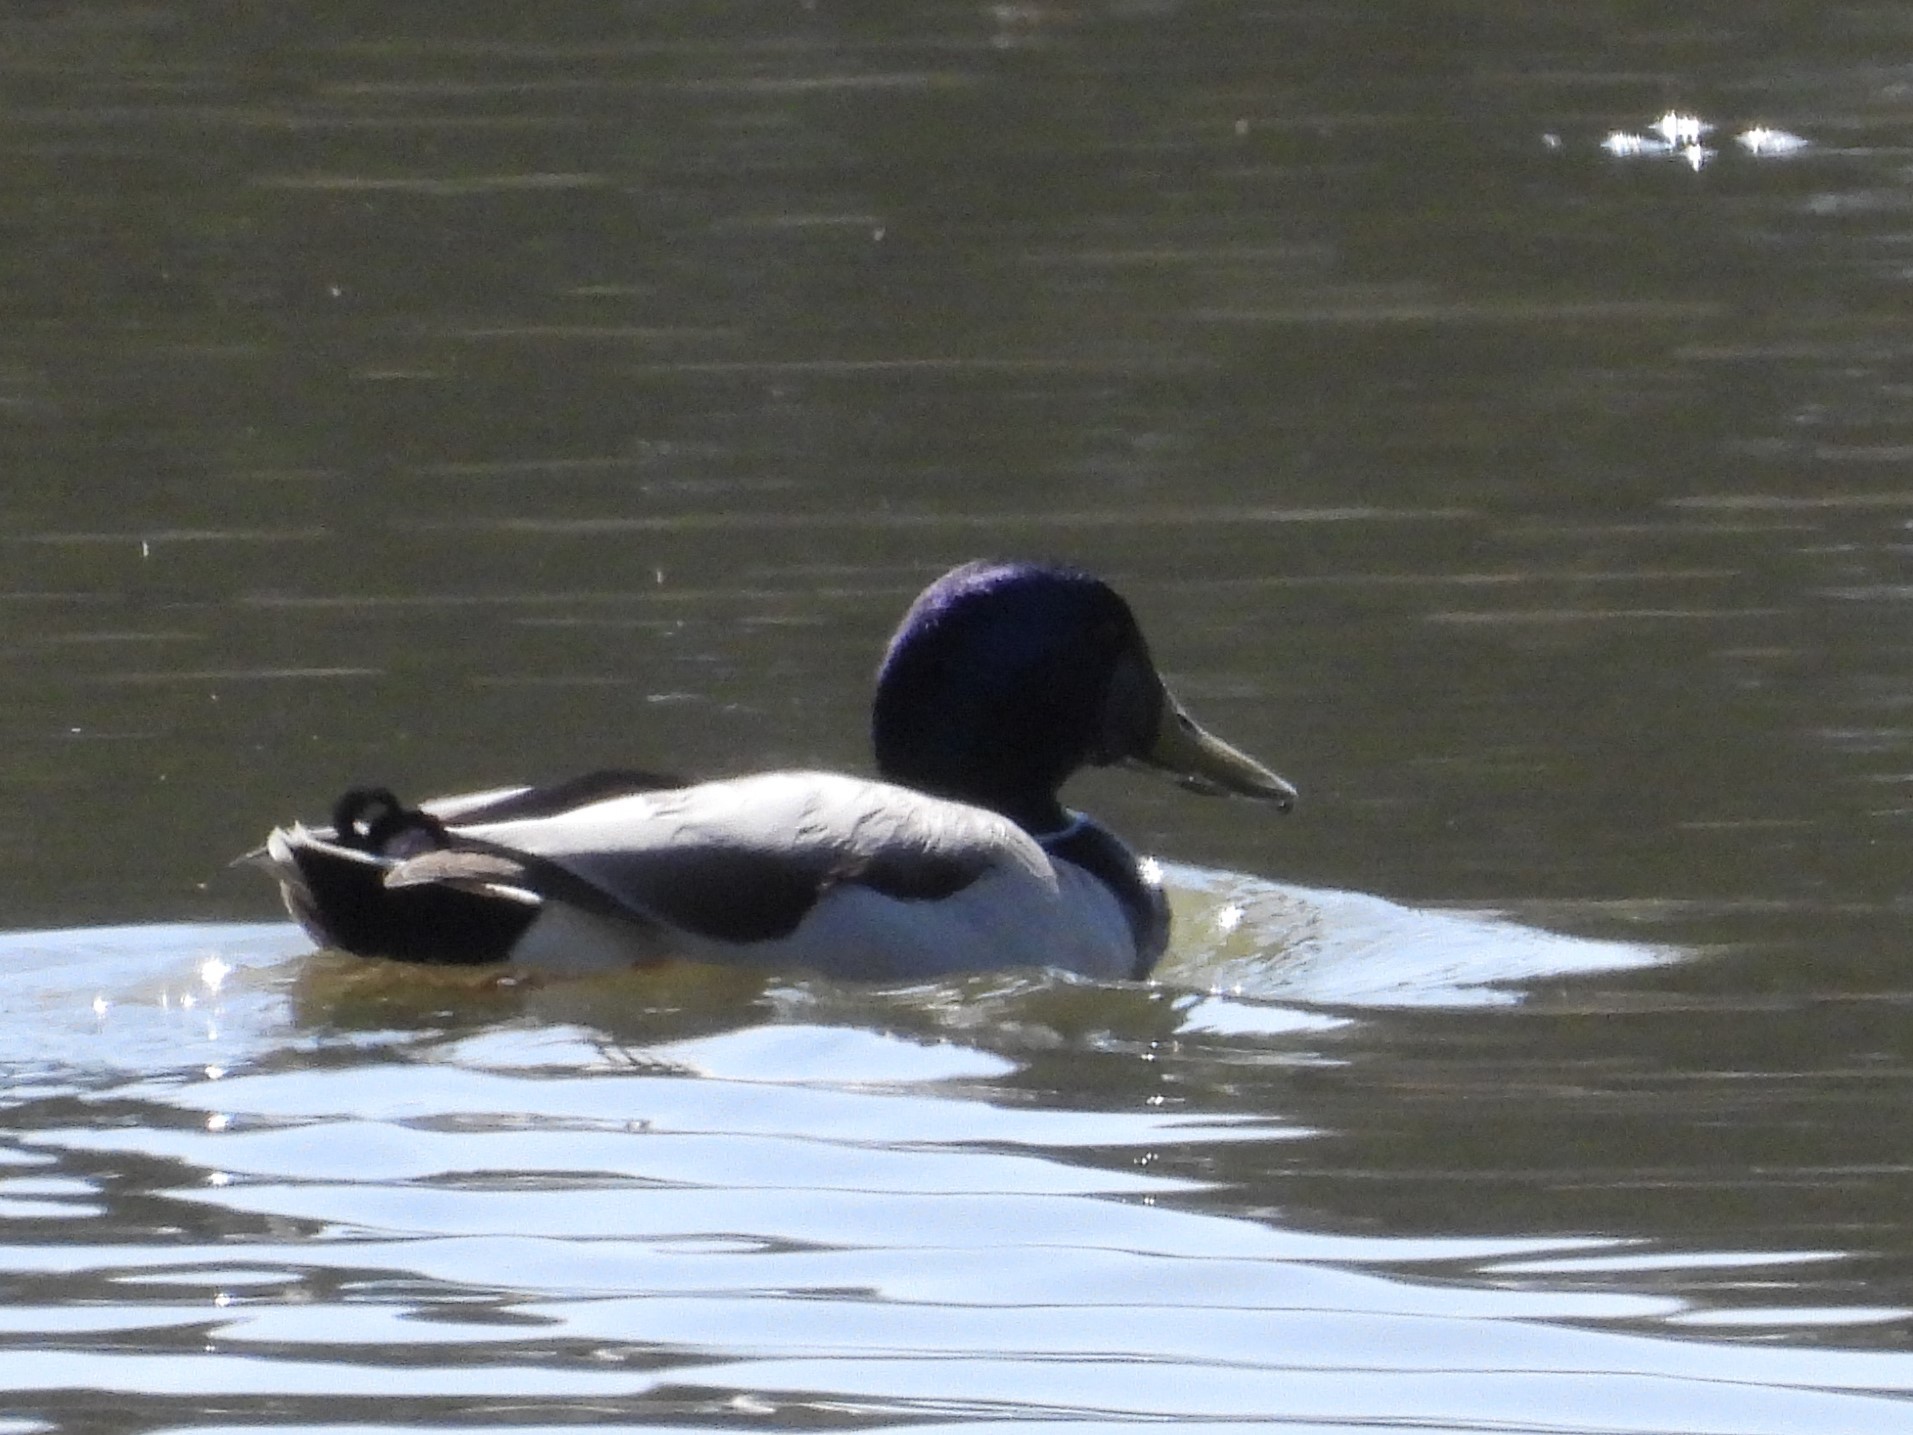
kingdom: Animalia
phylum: Chordata
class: Aves
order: Anseriformes
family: Anatidae
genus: Anas
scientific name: Anas platyrhynchos
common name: Mallard
